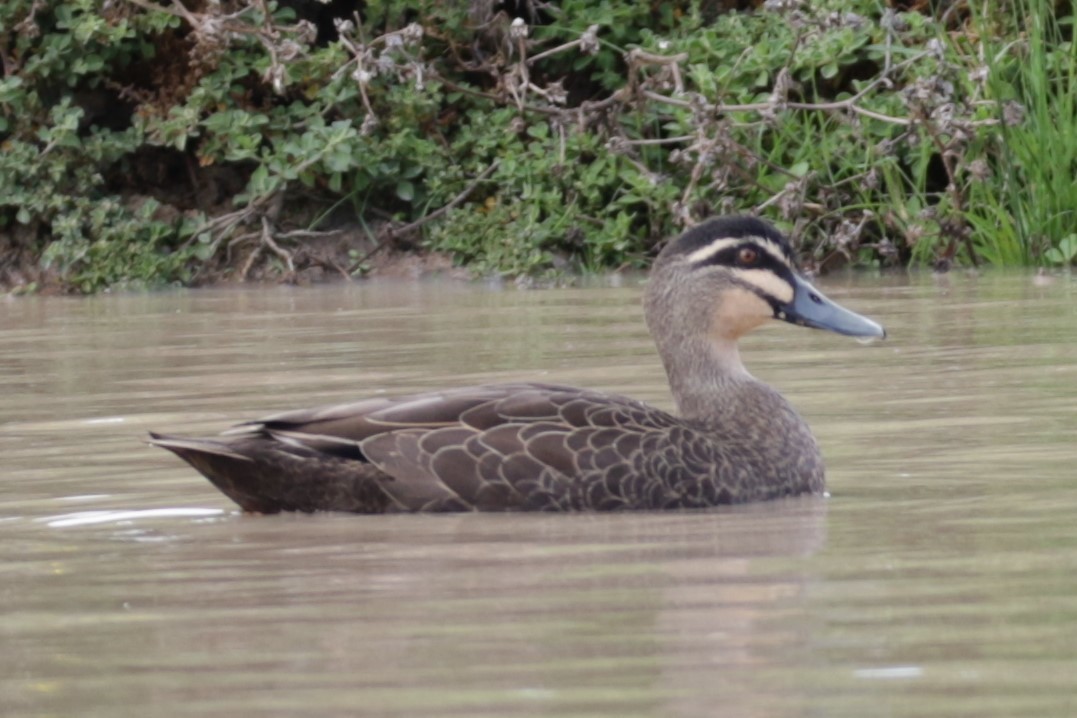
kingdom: Animalia
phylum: Chordata
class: Aves
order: Anseriformes
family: Anatidae
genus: Anas
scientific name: Anas superciliosa
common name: Pacific black duck
